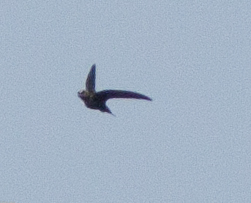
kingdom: Animalia
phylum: Chordata
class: Aves
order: Apodiformes
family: Apodidae
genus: Cypseloides
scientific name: Cypseloides niger
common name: Black swift
